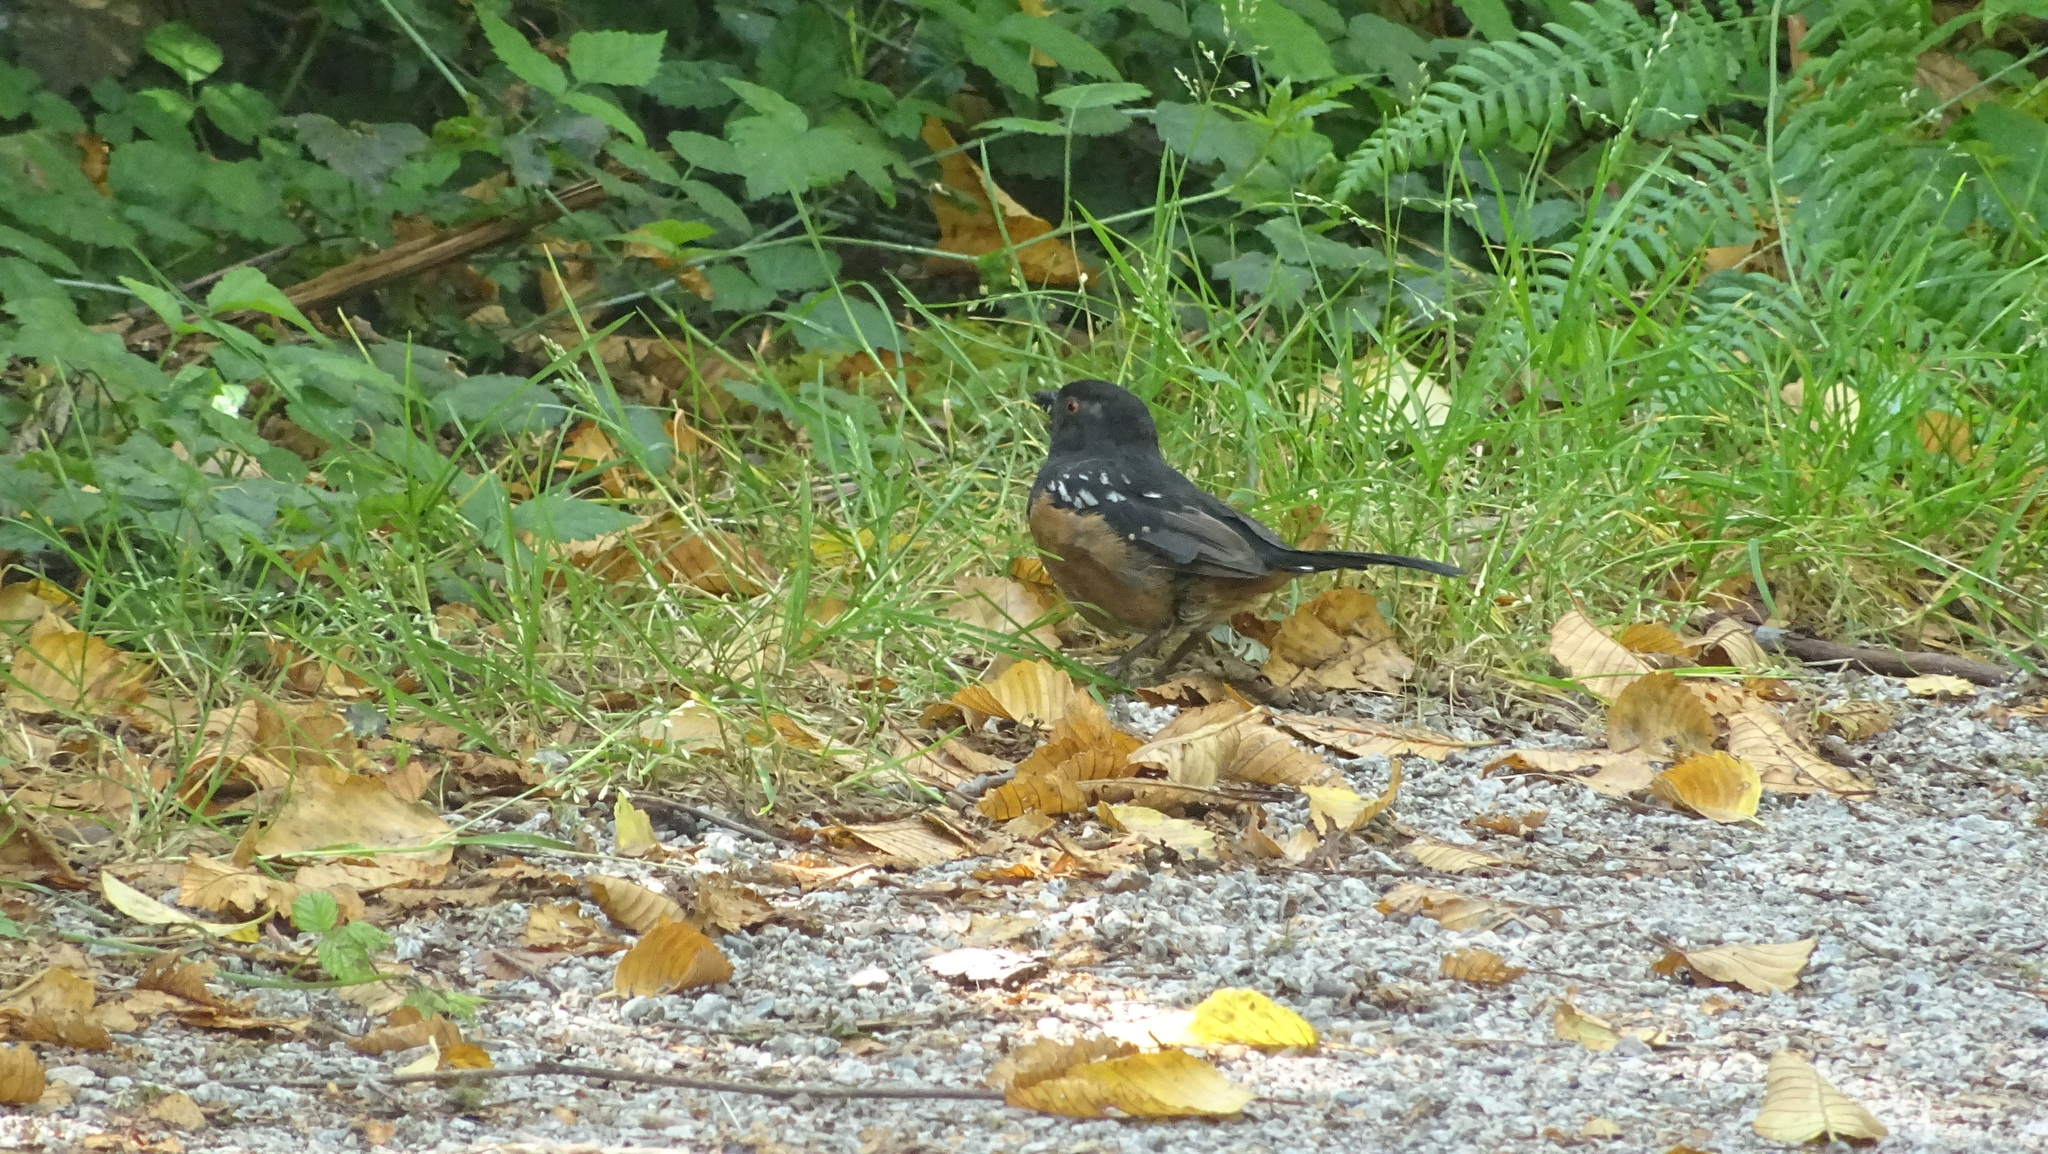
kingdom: Animalia
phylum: Chordata
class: Aves
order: Passeriformes
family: Passerellidae
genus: Pipilo
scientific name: Pipilo maculatus
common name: Spotted towhee
